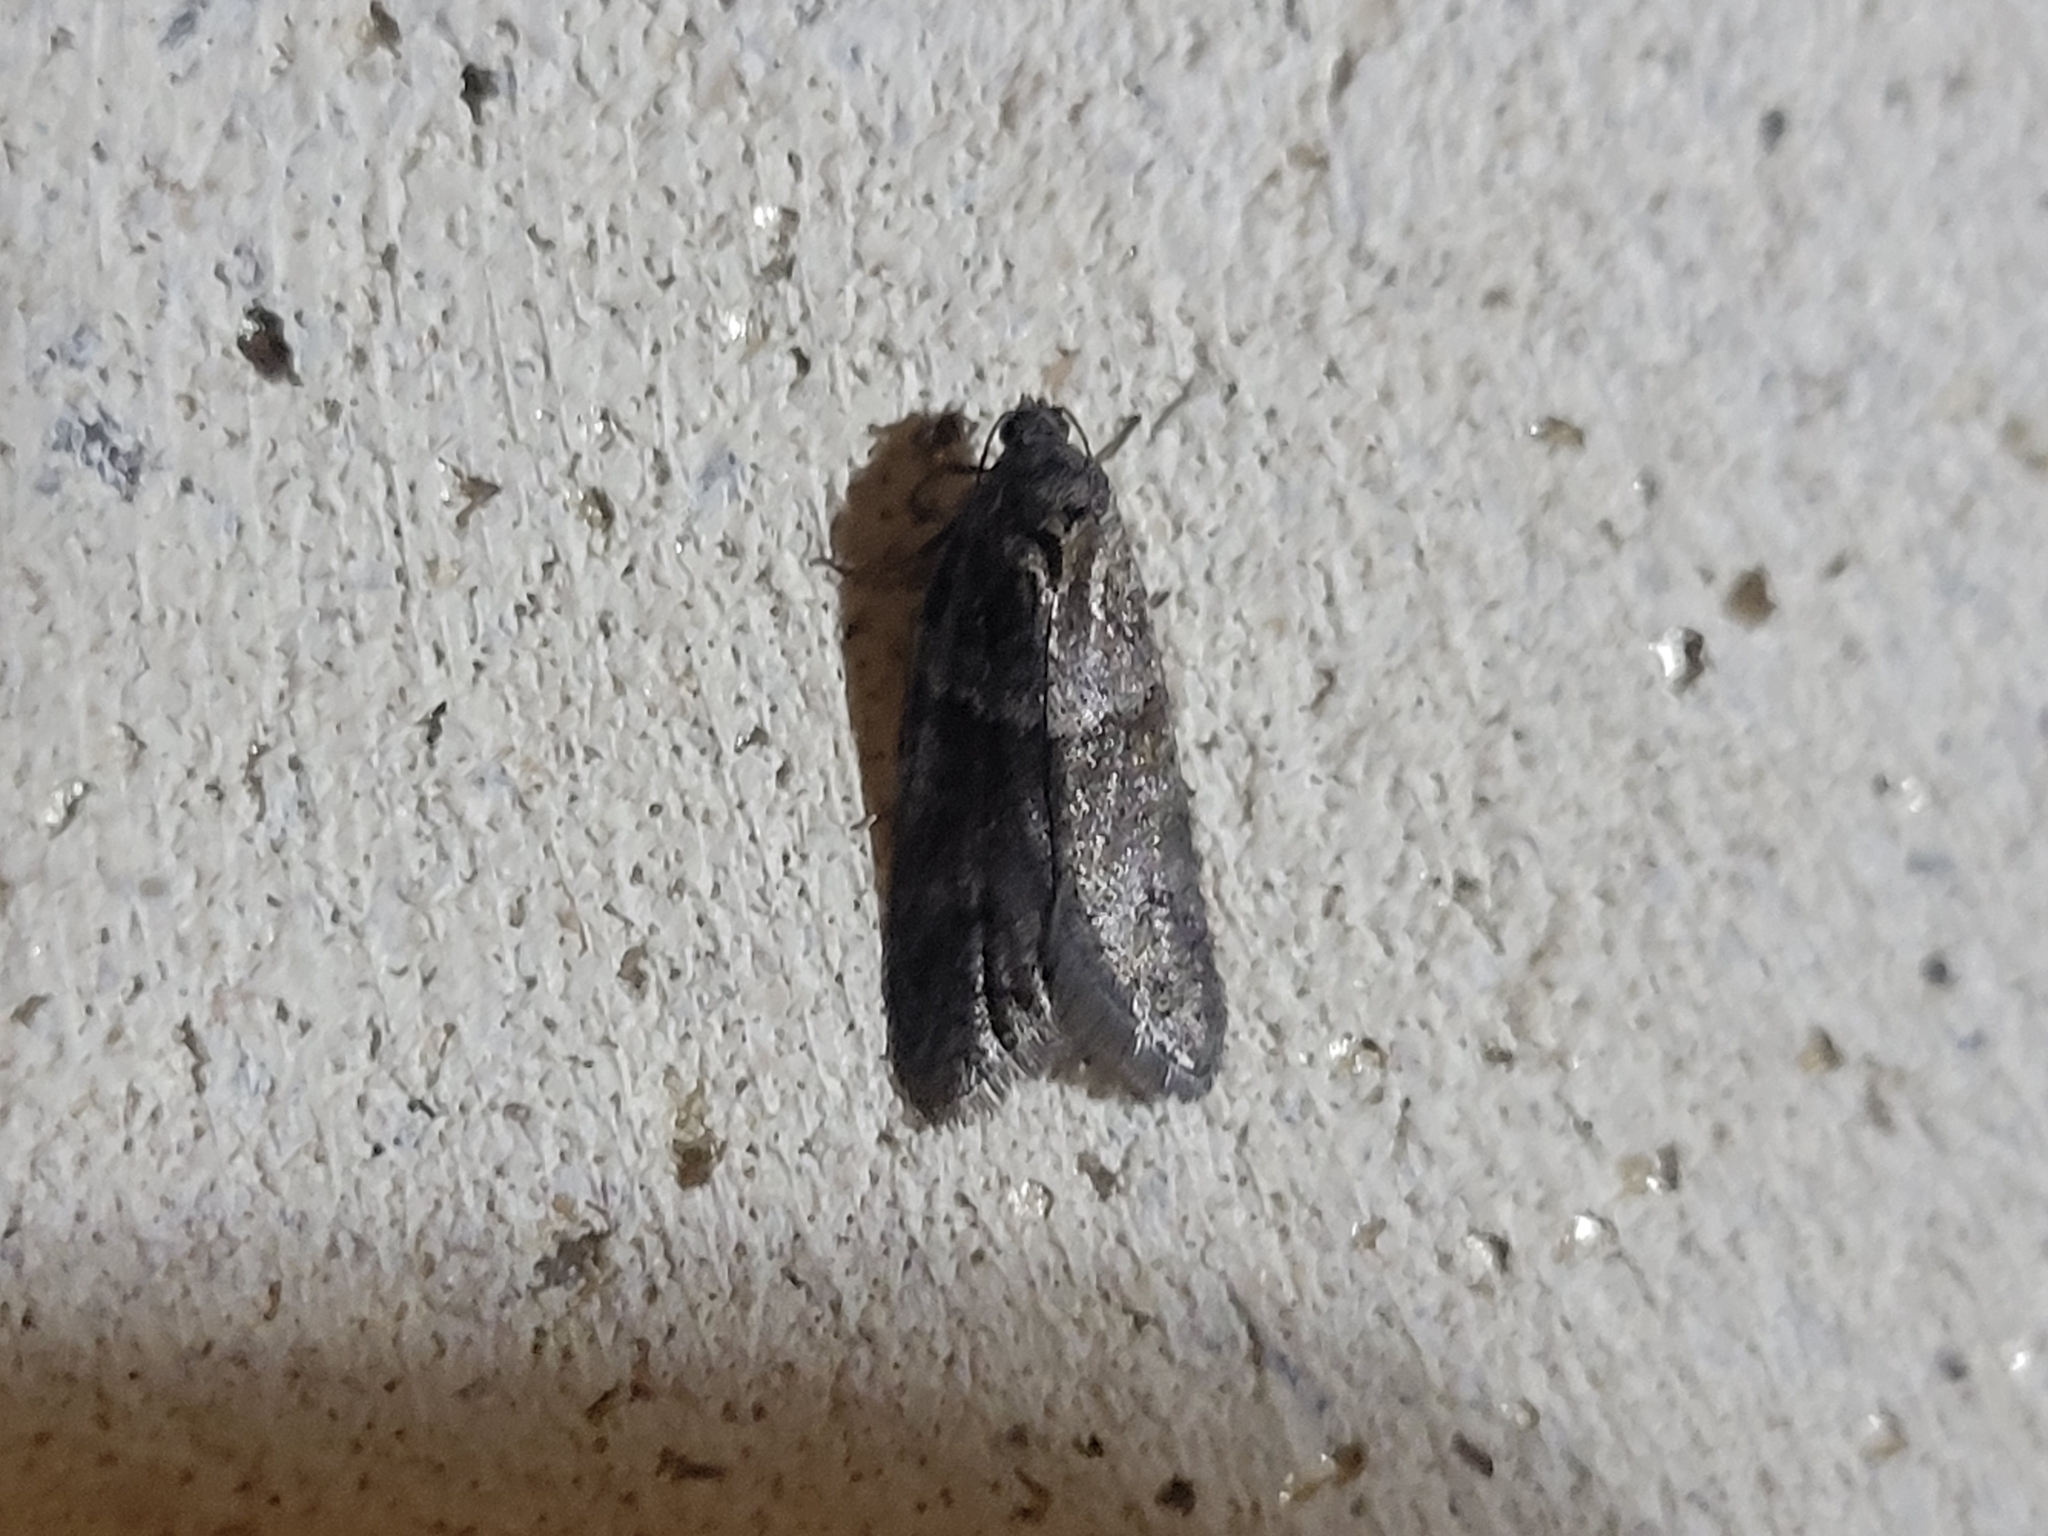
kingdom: Animalia
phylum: Arthropoda
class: Insecta
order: Lepidoptera
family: Tortricidae
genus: Tortricodes
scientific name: Tortricodes alternella
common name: Winter shade
